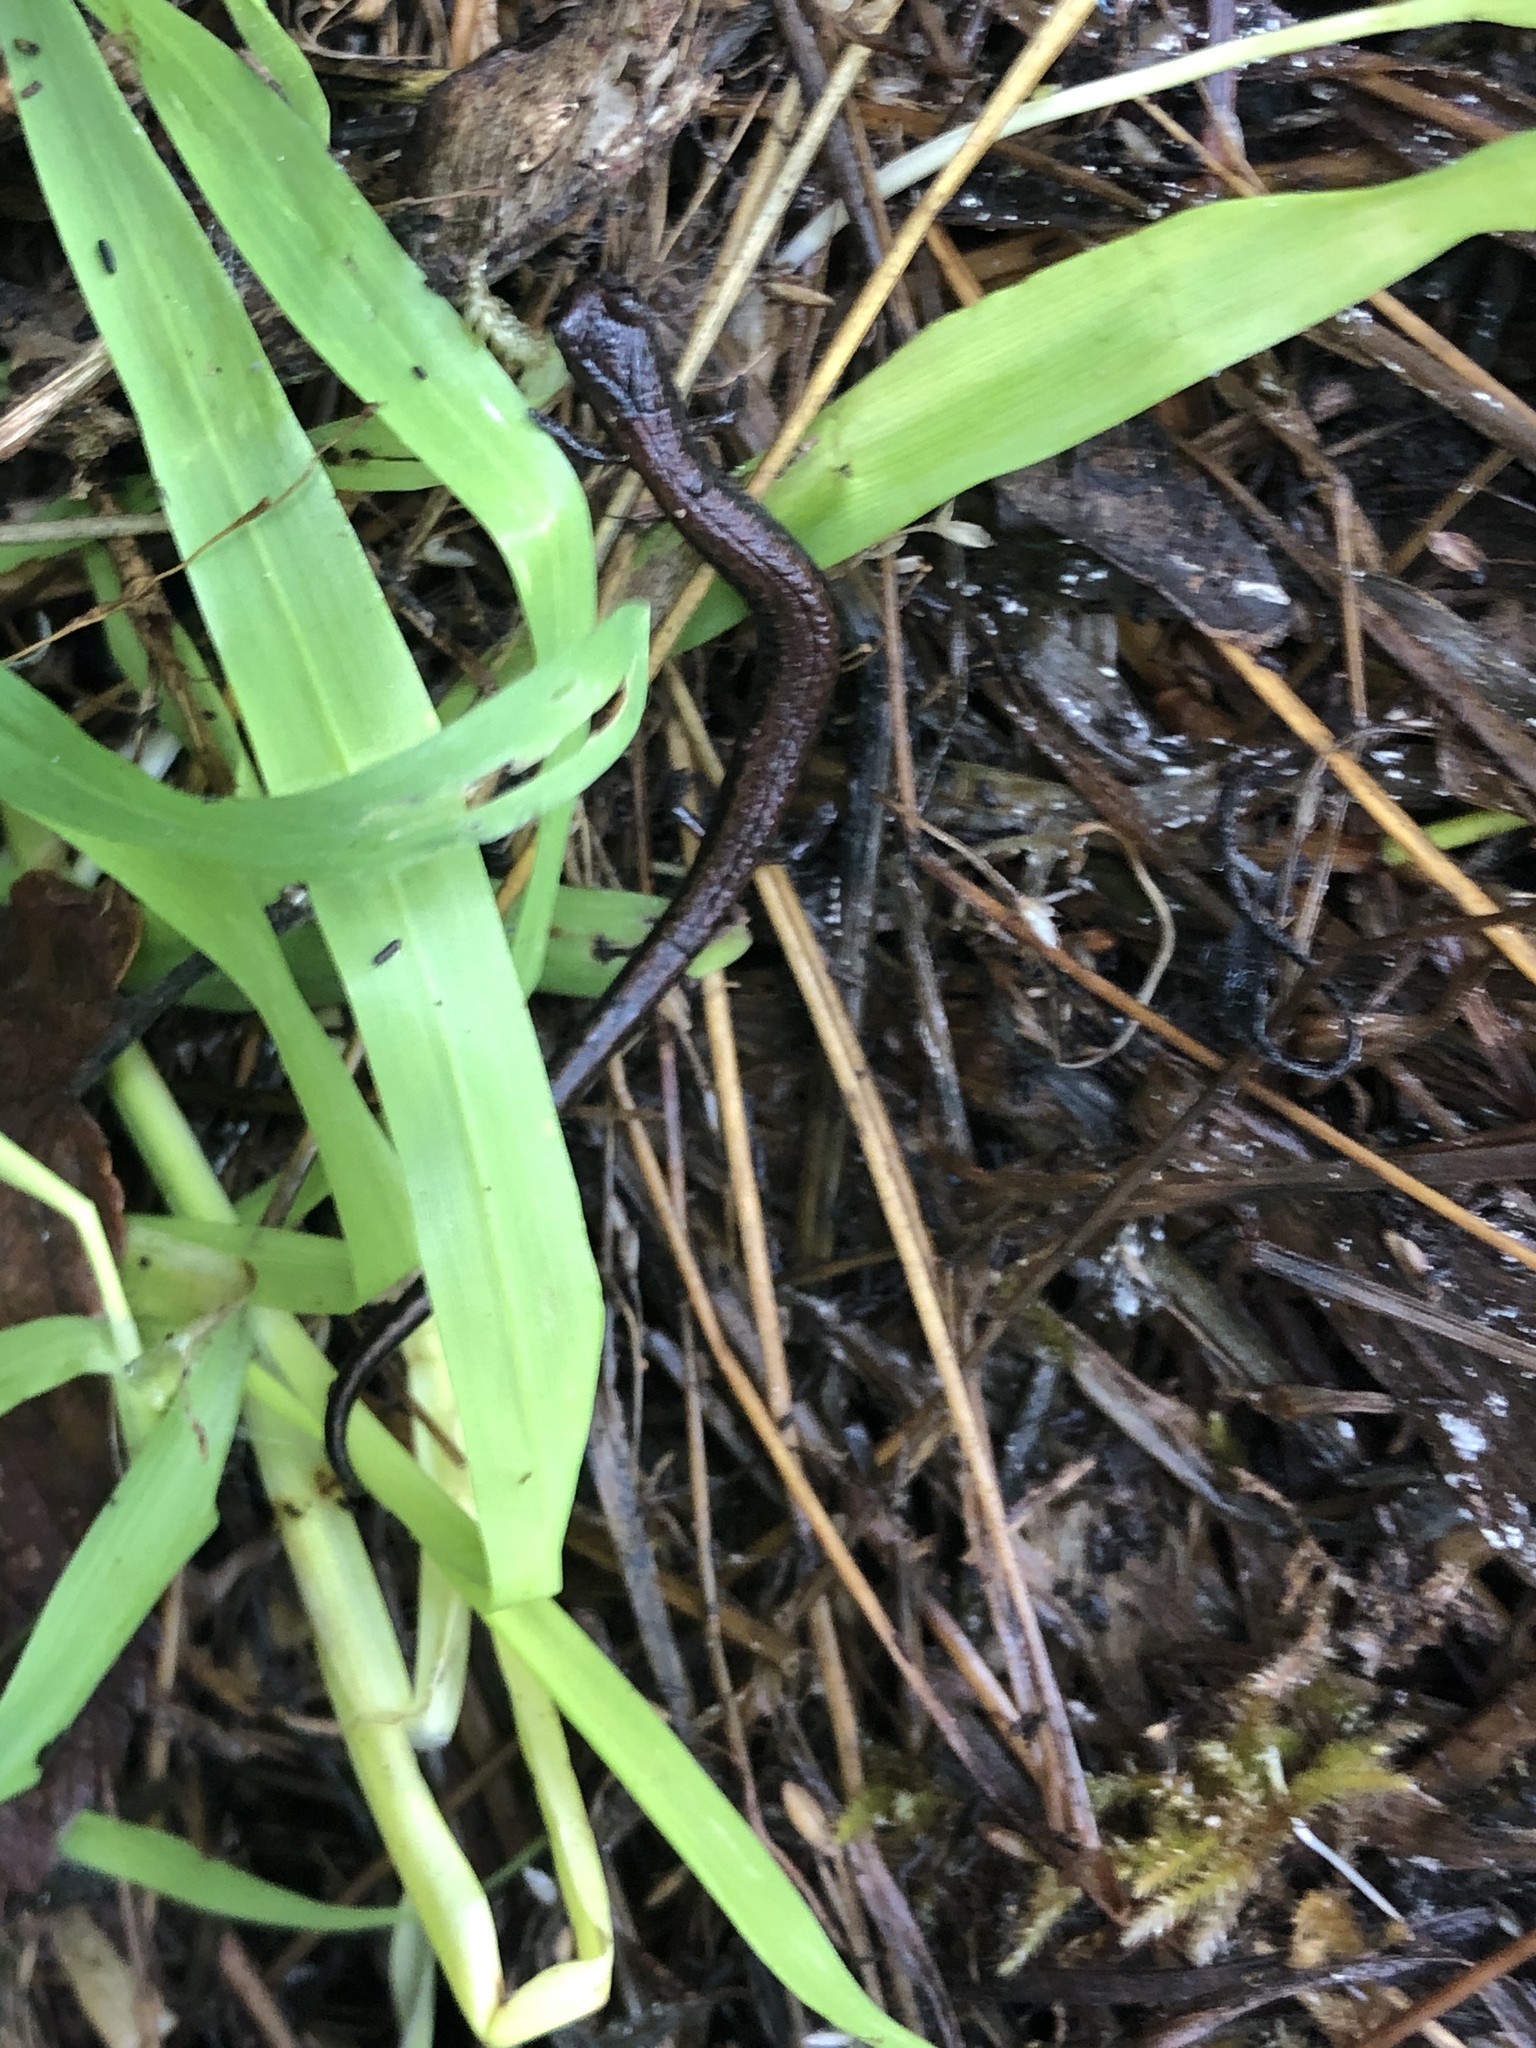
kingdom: Animalia
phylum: Chordata
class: Amphibia
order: Caudata
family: Plethodontidae
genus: Batrachoseps
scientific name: Batrachoseps attenuatus
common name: California slender salamander
